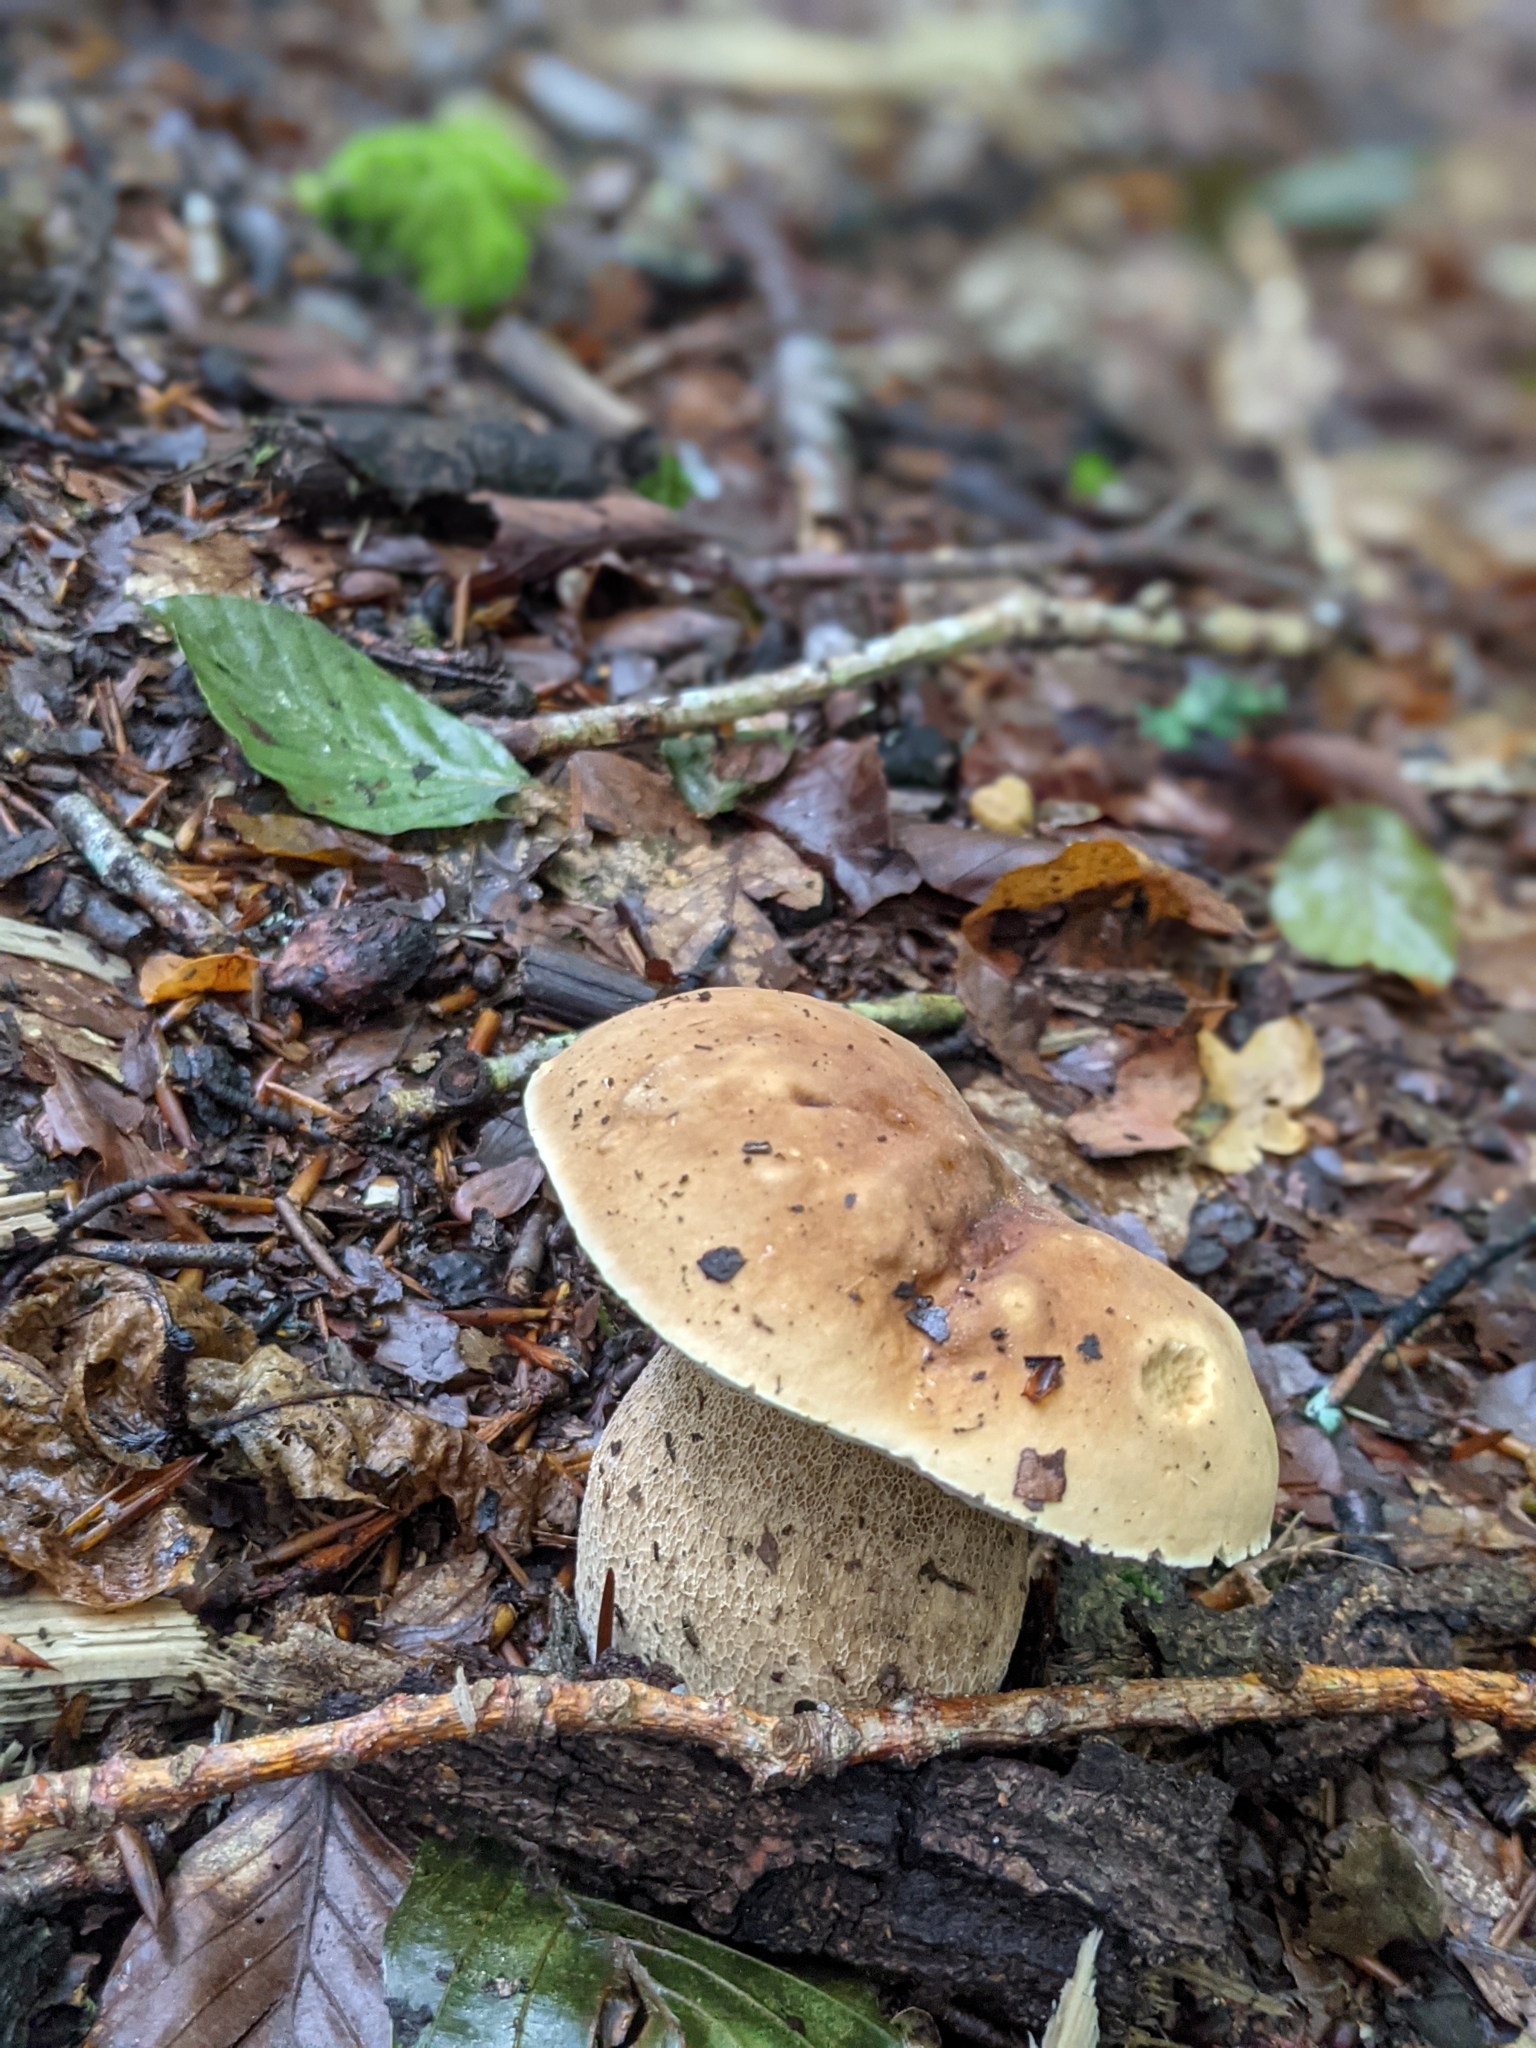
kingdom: Fungi
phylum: Basidiomycota
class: Agaricomycetes
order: Boletales
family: Boletaceae
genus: Boletus
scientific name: Boletus edulis
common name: Cep
